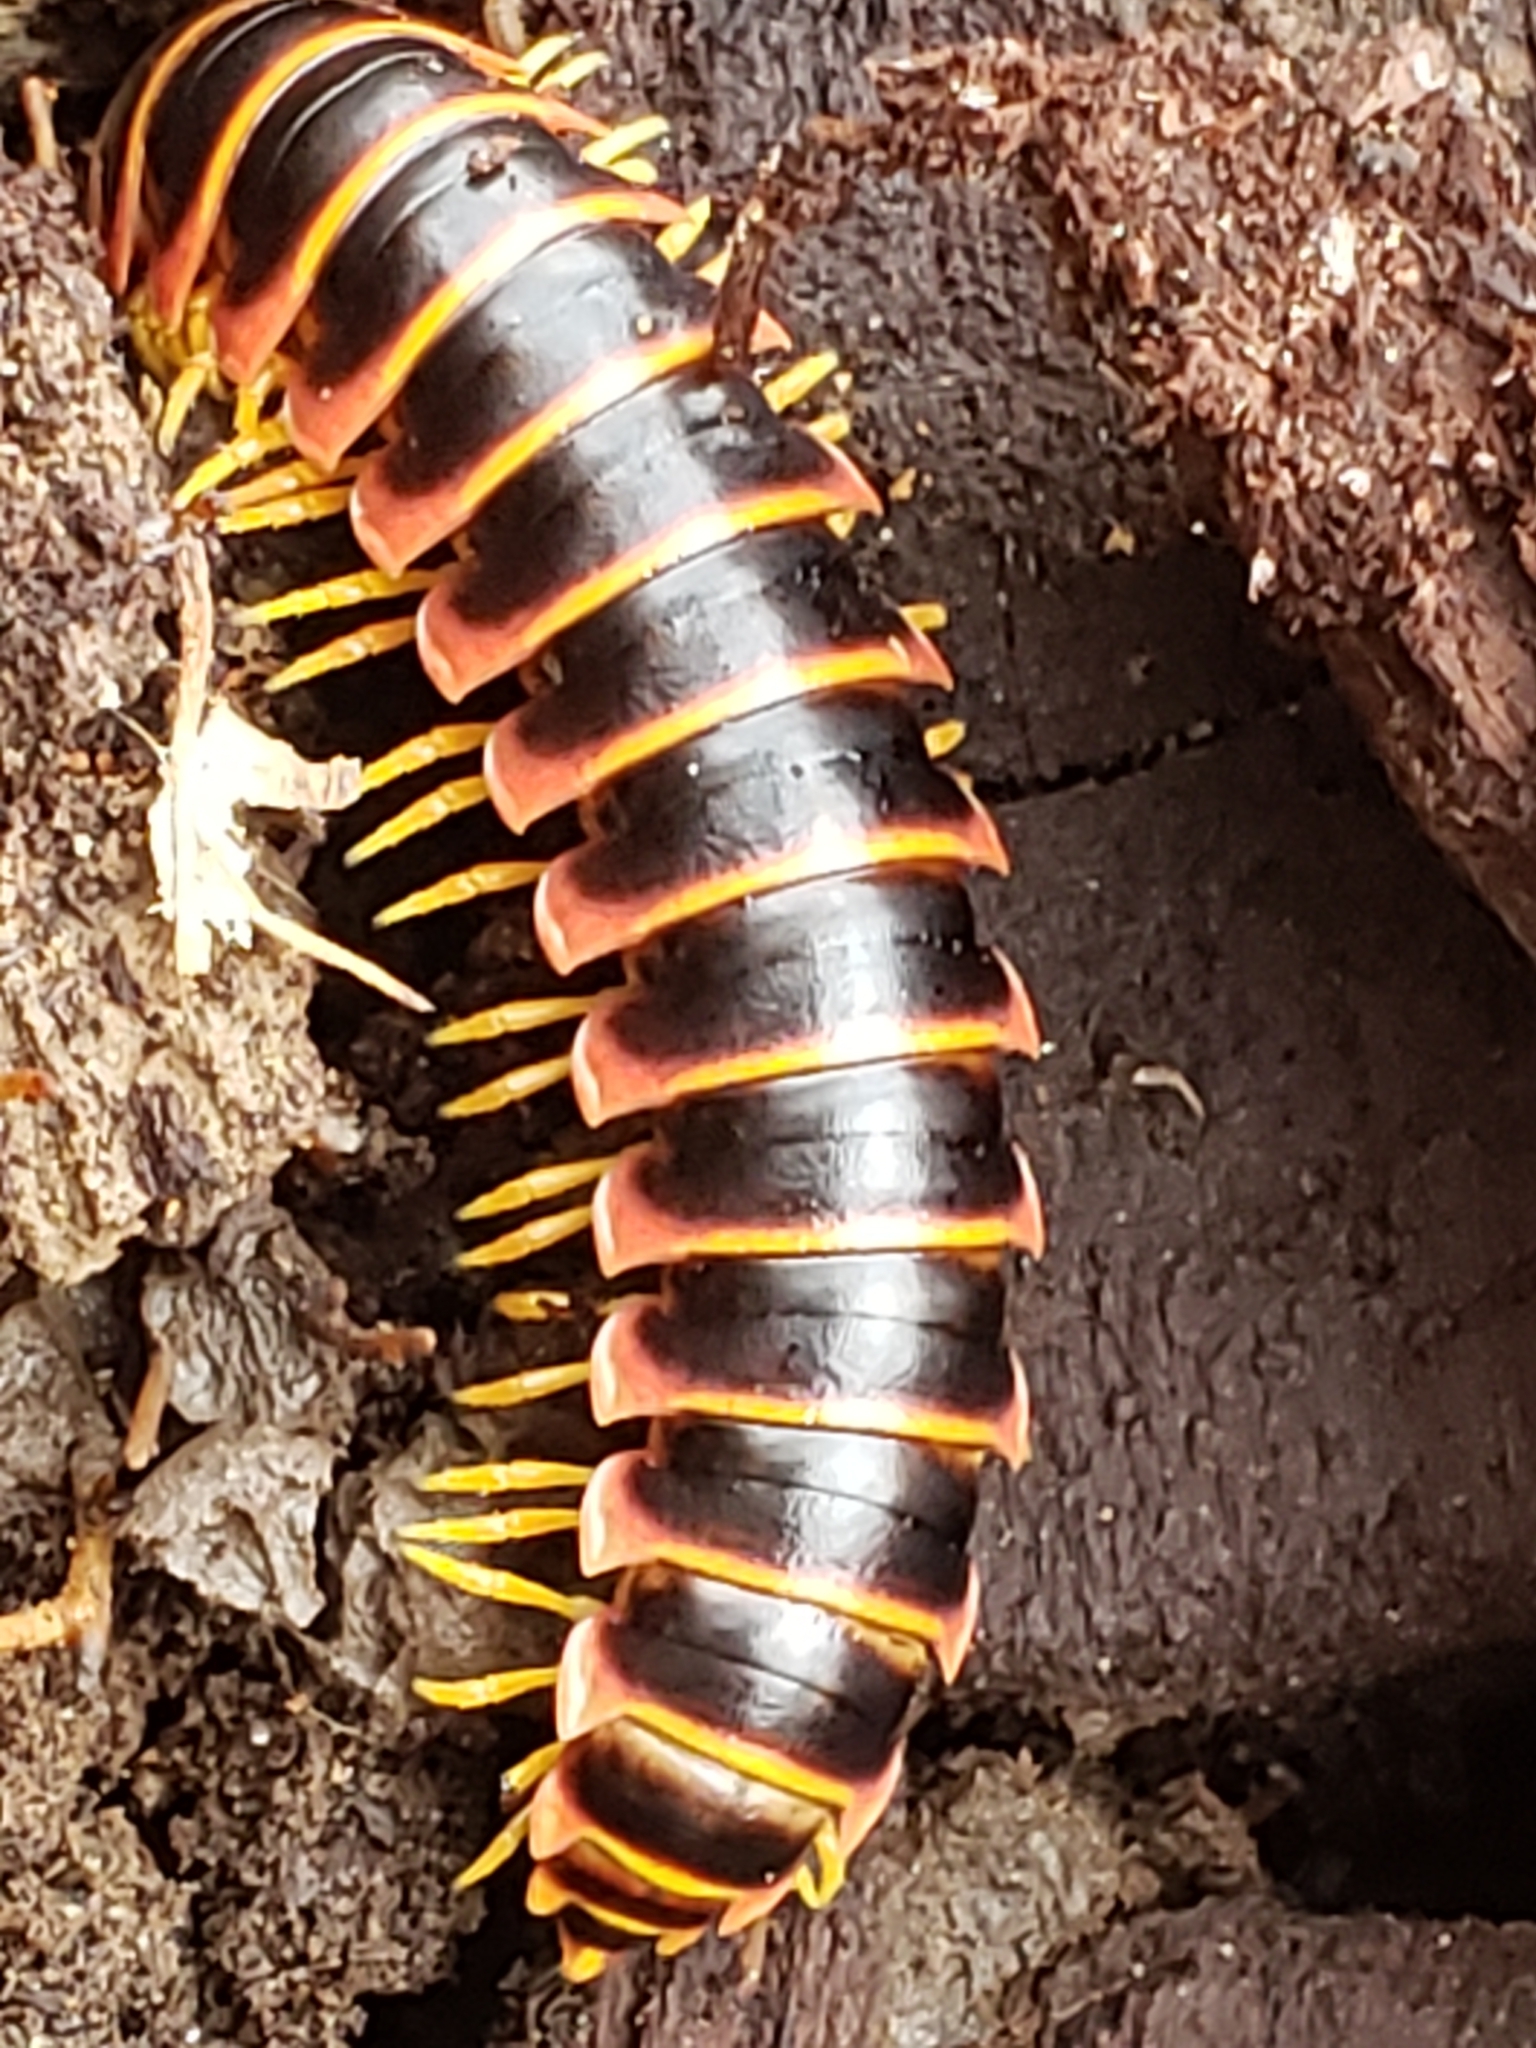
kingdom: Animalia
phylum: Arthropoda
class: Diplopoda
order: Polydesmida
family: Xystodesmidae
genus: Apheloria
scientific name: Apheloria virginiensis
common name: Black-and-gold flat millipede
